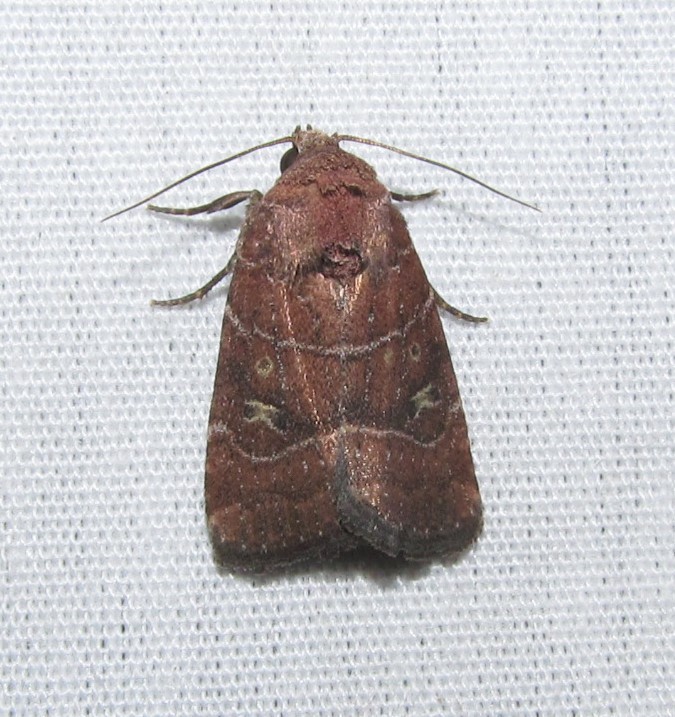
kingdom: Animalia
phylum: Arthropoda
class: Insecta
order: Lepidoptera
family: Noctuidae
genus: Elaphria
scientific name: Elaphria grata
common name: Grateful midget moth
